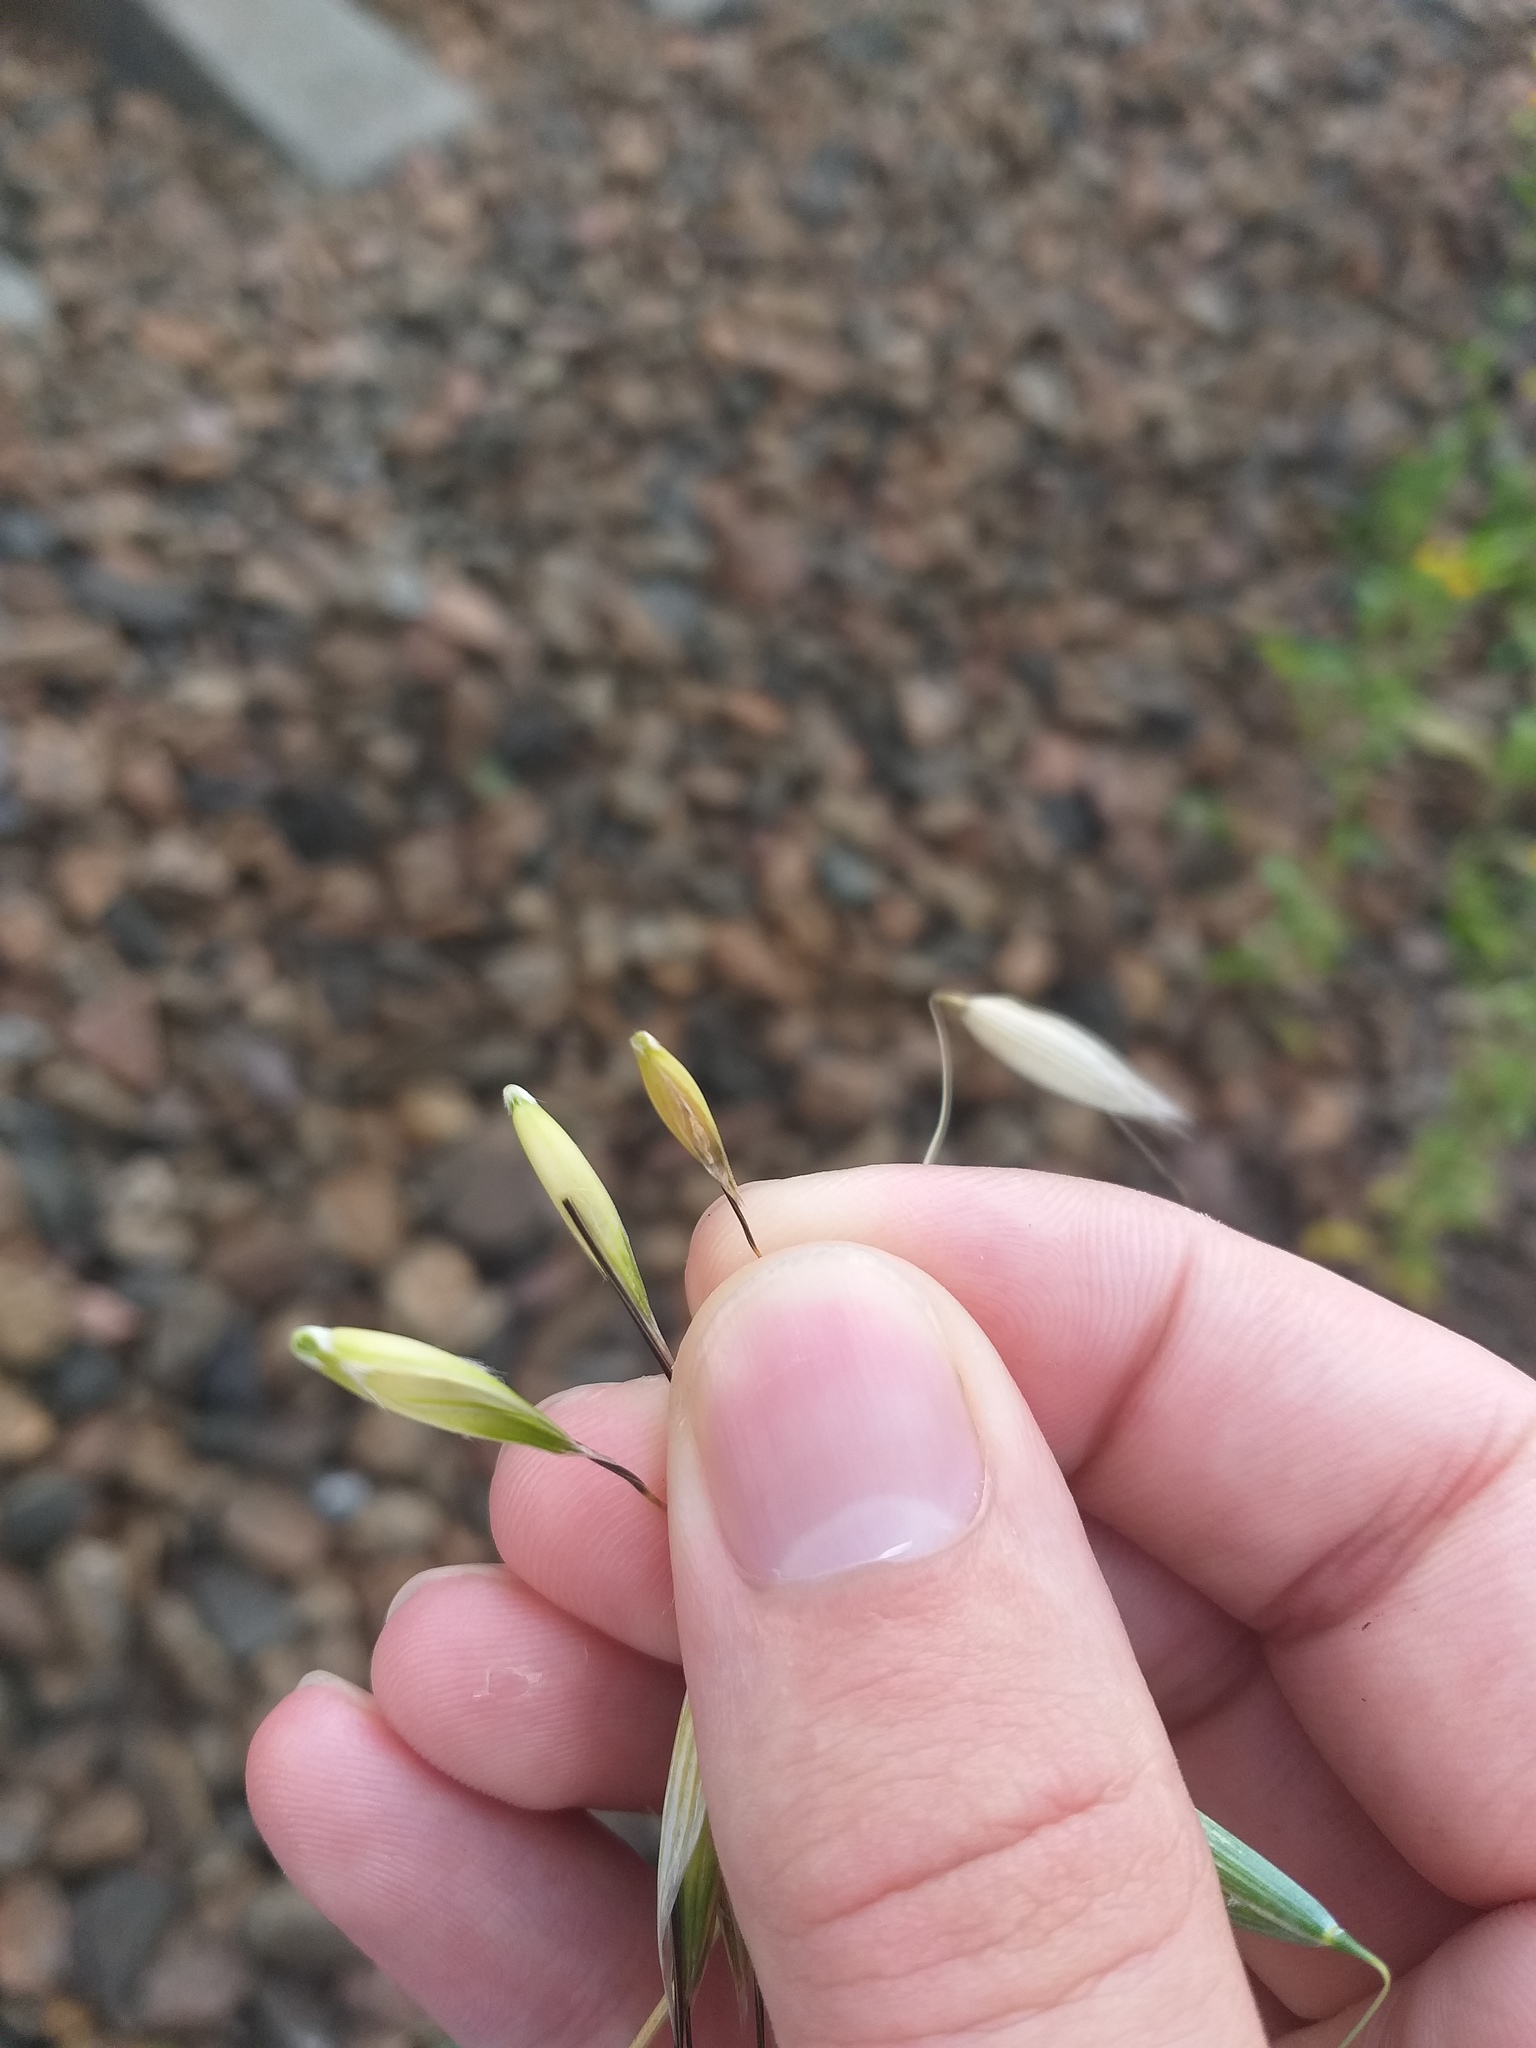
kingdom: Plantae
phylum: Tracheophyta
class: Liliopsida
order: Poales
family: Poaceae
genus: Avena
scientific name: Avena fatua
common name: Wild oat
